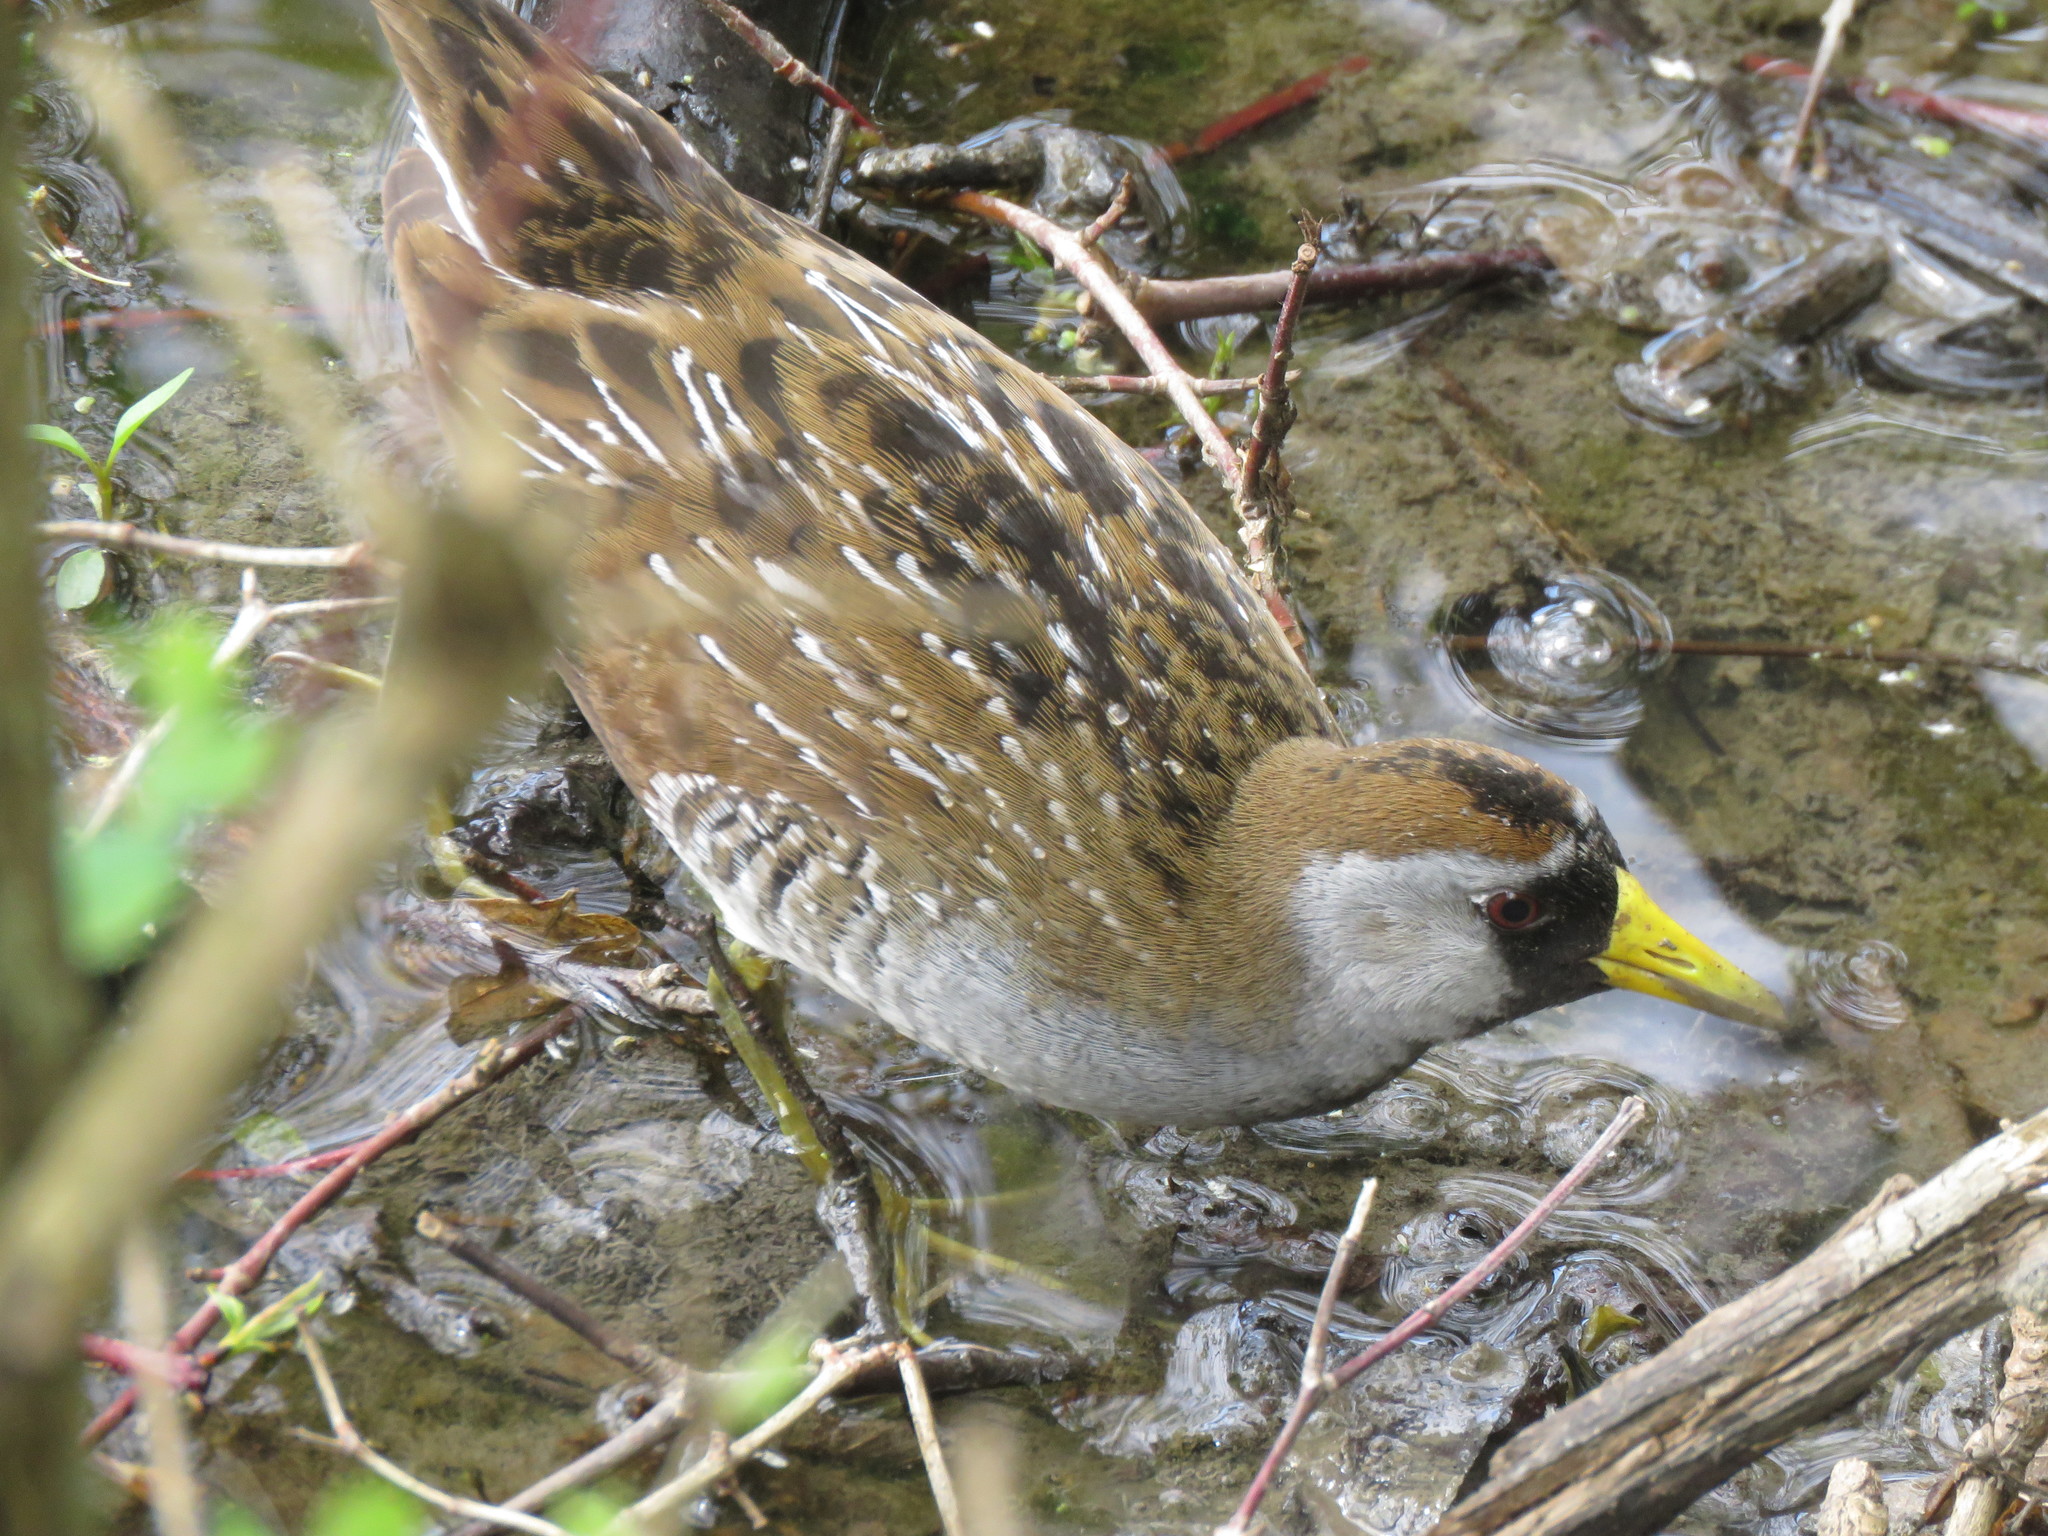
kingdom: Animalia
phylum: Chordata
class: Aves
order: Gruiformes
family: Rallidae
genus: Porzana
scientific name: Porzana carolina
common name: Sora
